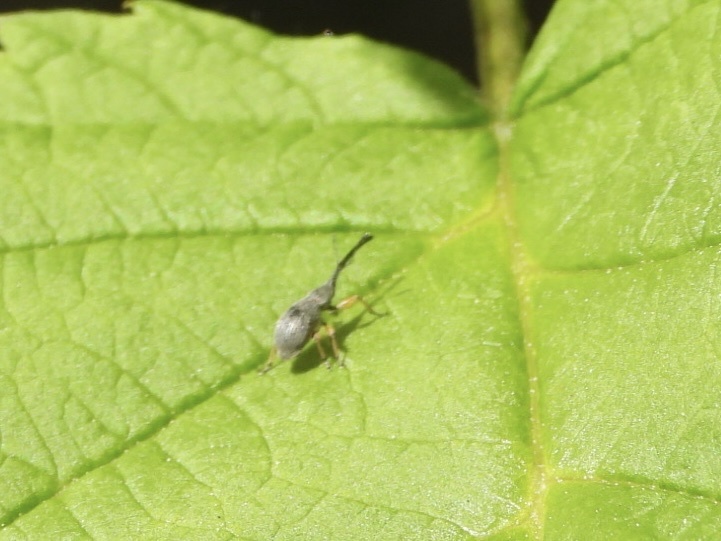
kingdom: Animalia
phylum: Arthropoda
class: Insecta
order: Coleoptera
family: Brentidae
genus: Rhopalapion
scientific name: Rhopalapion longirostre
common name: Hollyhock weevil
